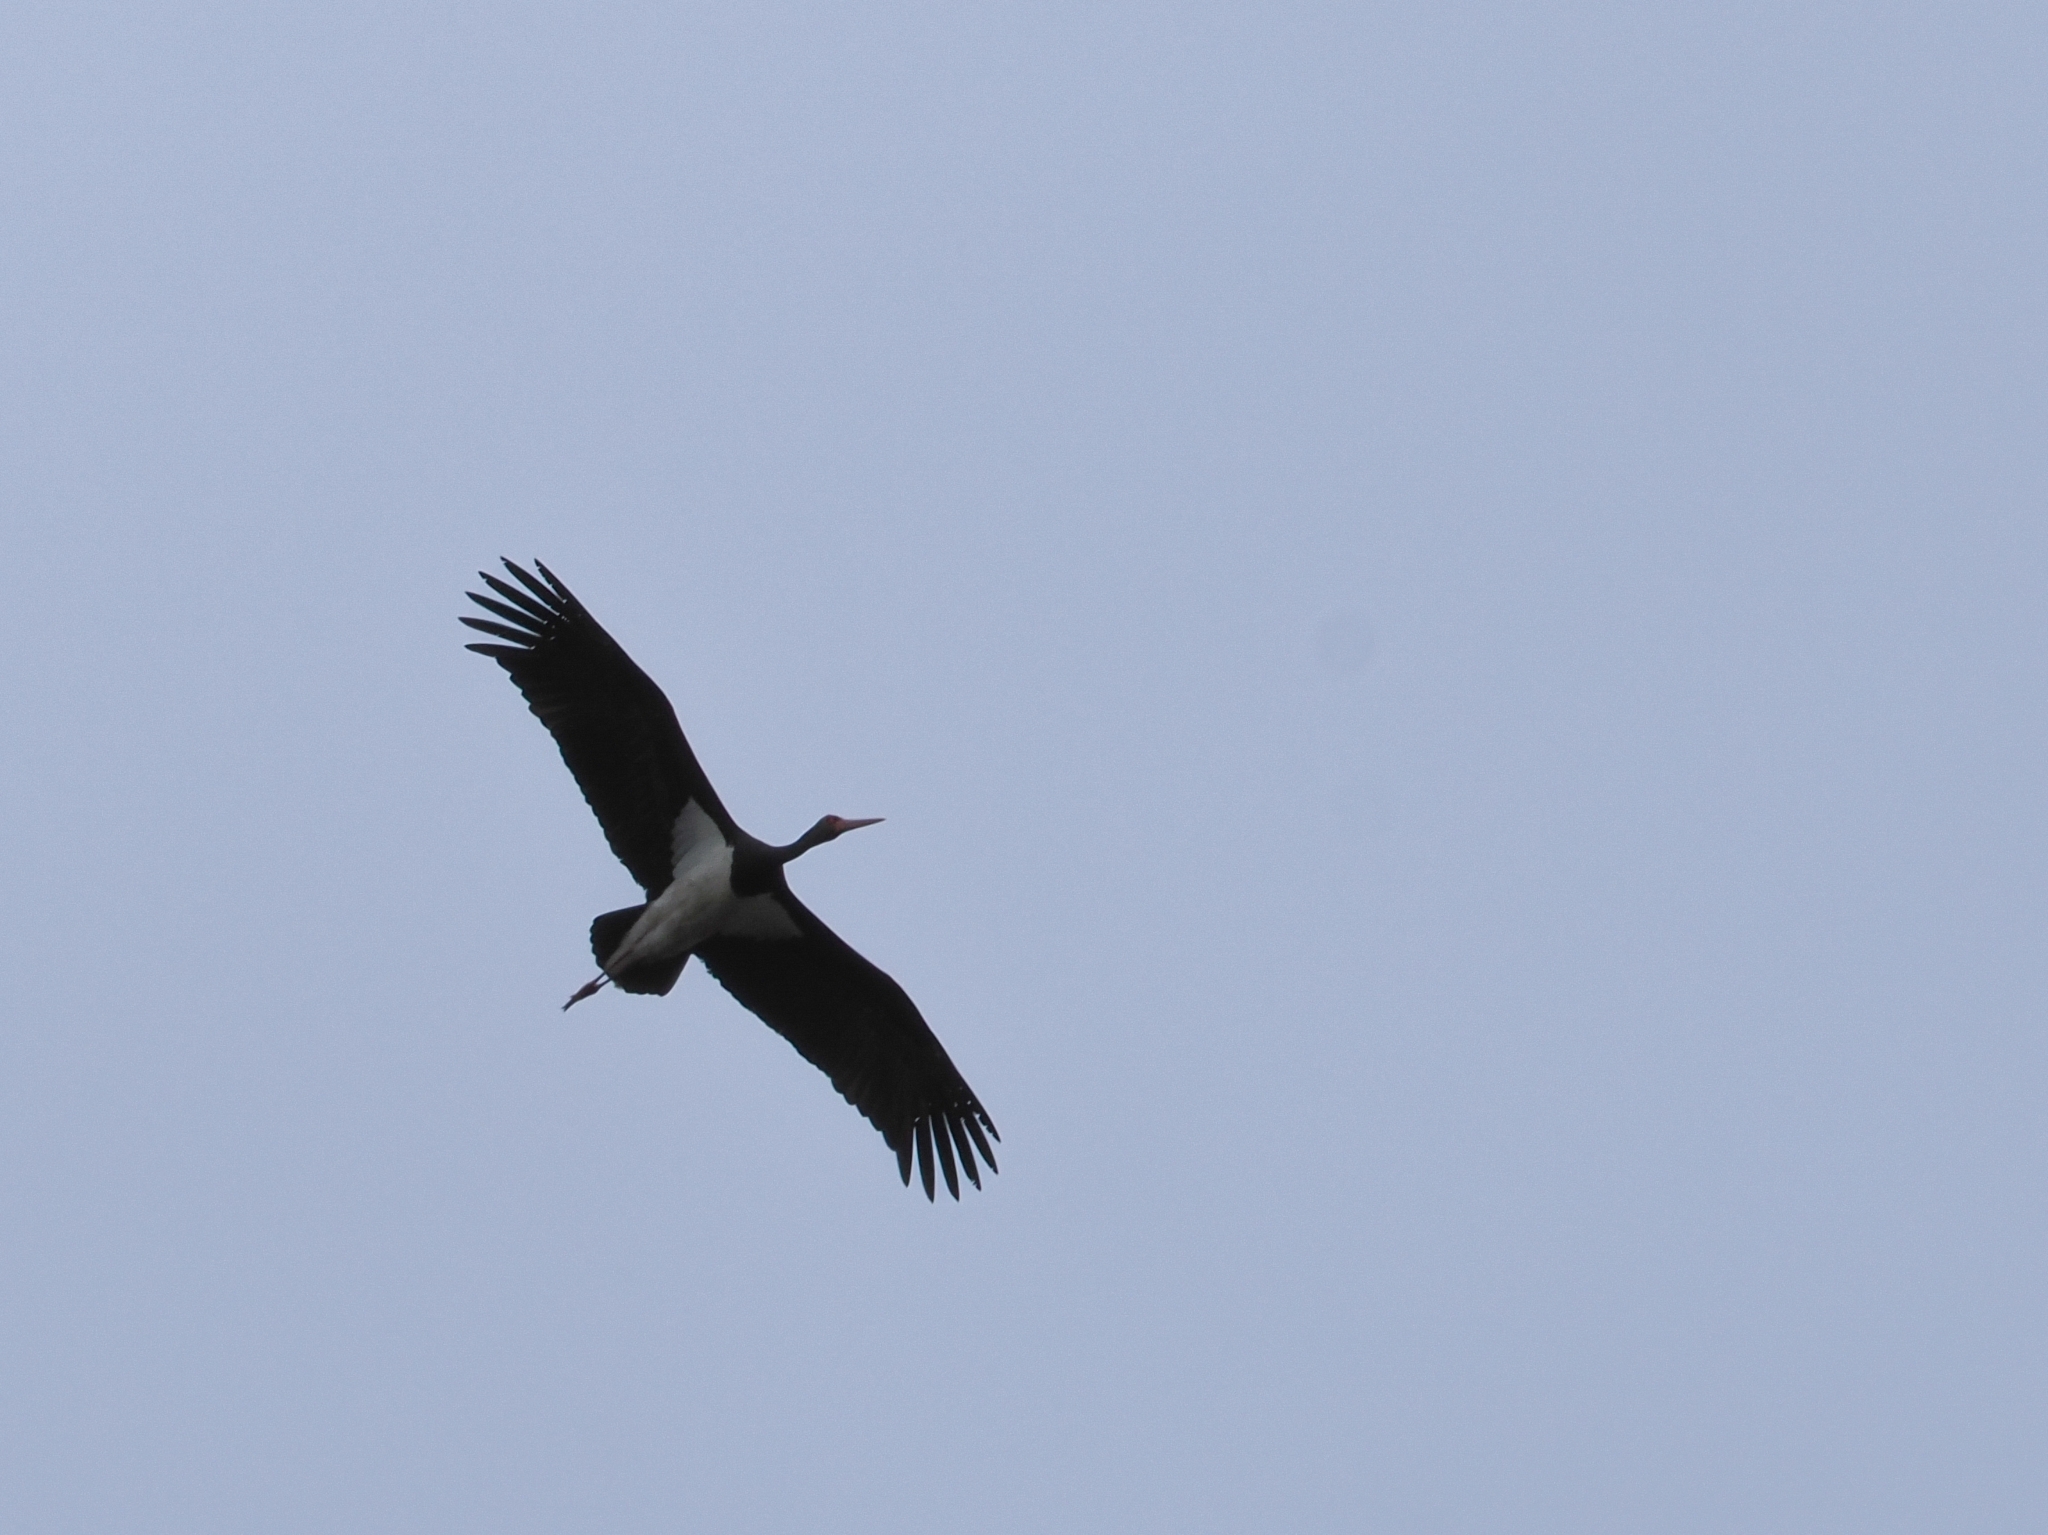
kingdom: Animalia
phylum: Chordata
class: Aves
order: Ciconiiformes
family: Ciconiidae
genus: Ciconia
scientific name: Ciconia nigra
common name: Black stork
